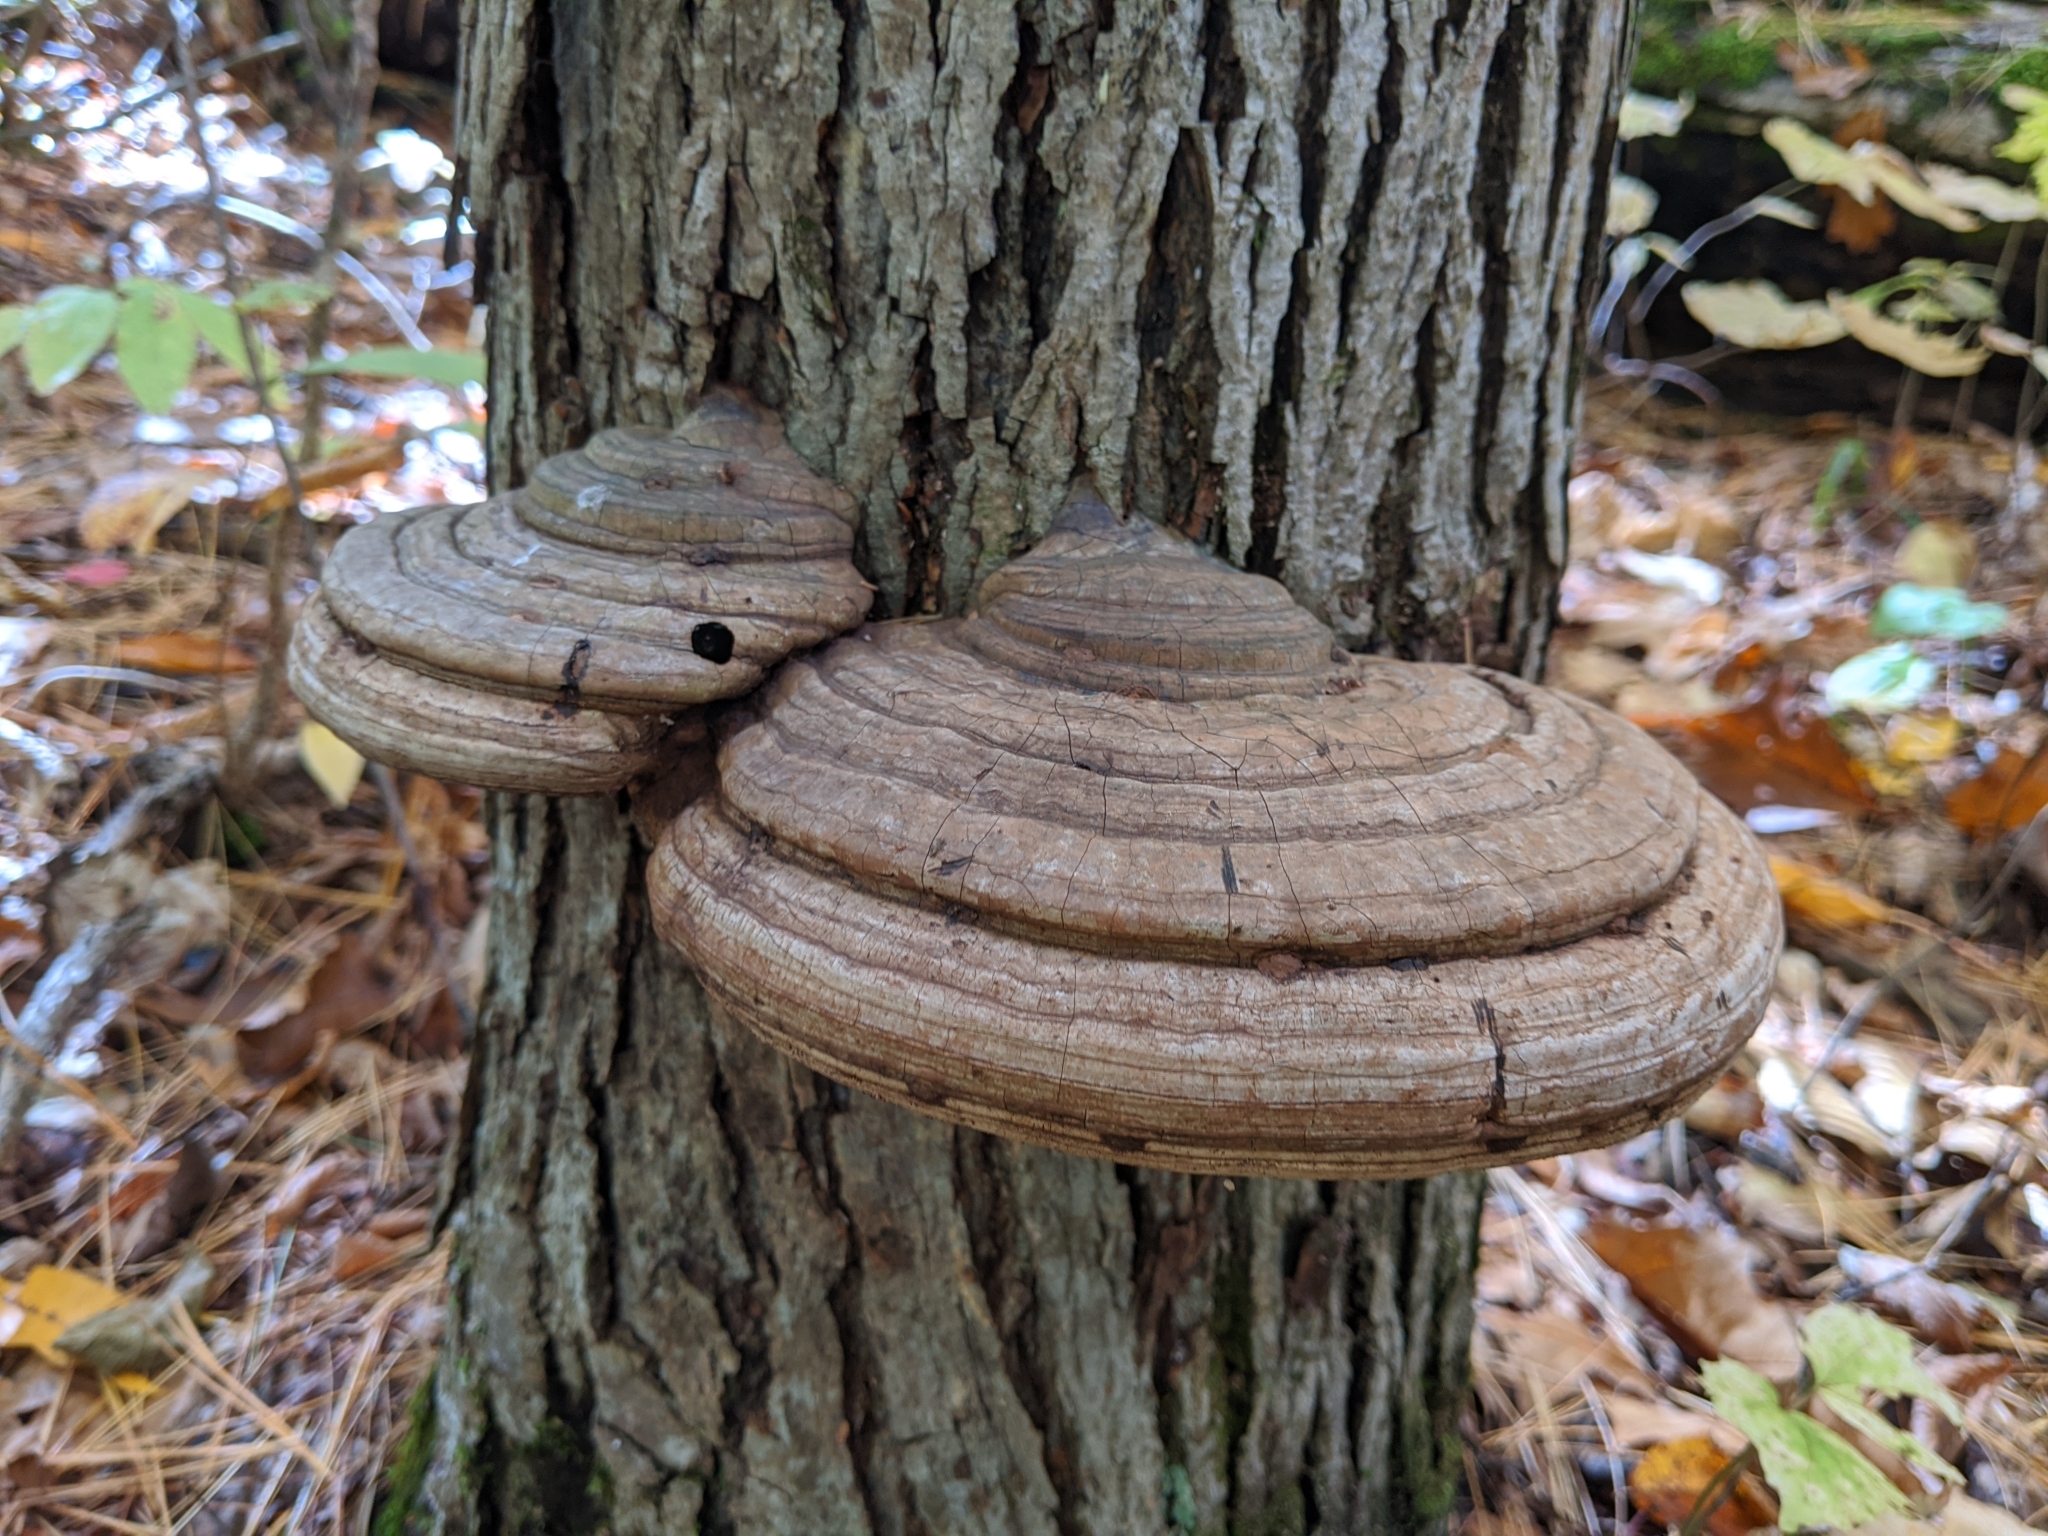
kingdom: Fungi
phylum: Basidiomycota
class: Agaricomycetes
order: Polyporales
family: Polyporaceae
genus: Ganoderma
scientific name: Ganoderma applanatum
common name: Artist's bracket
